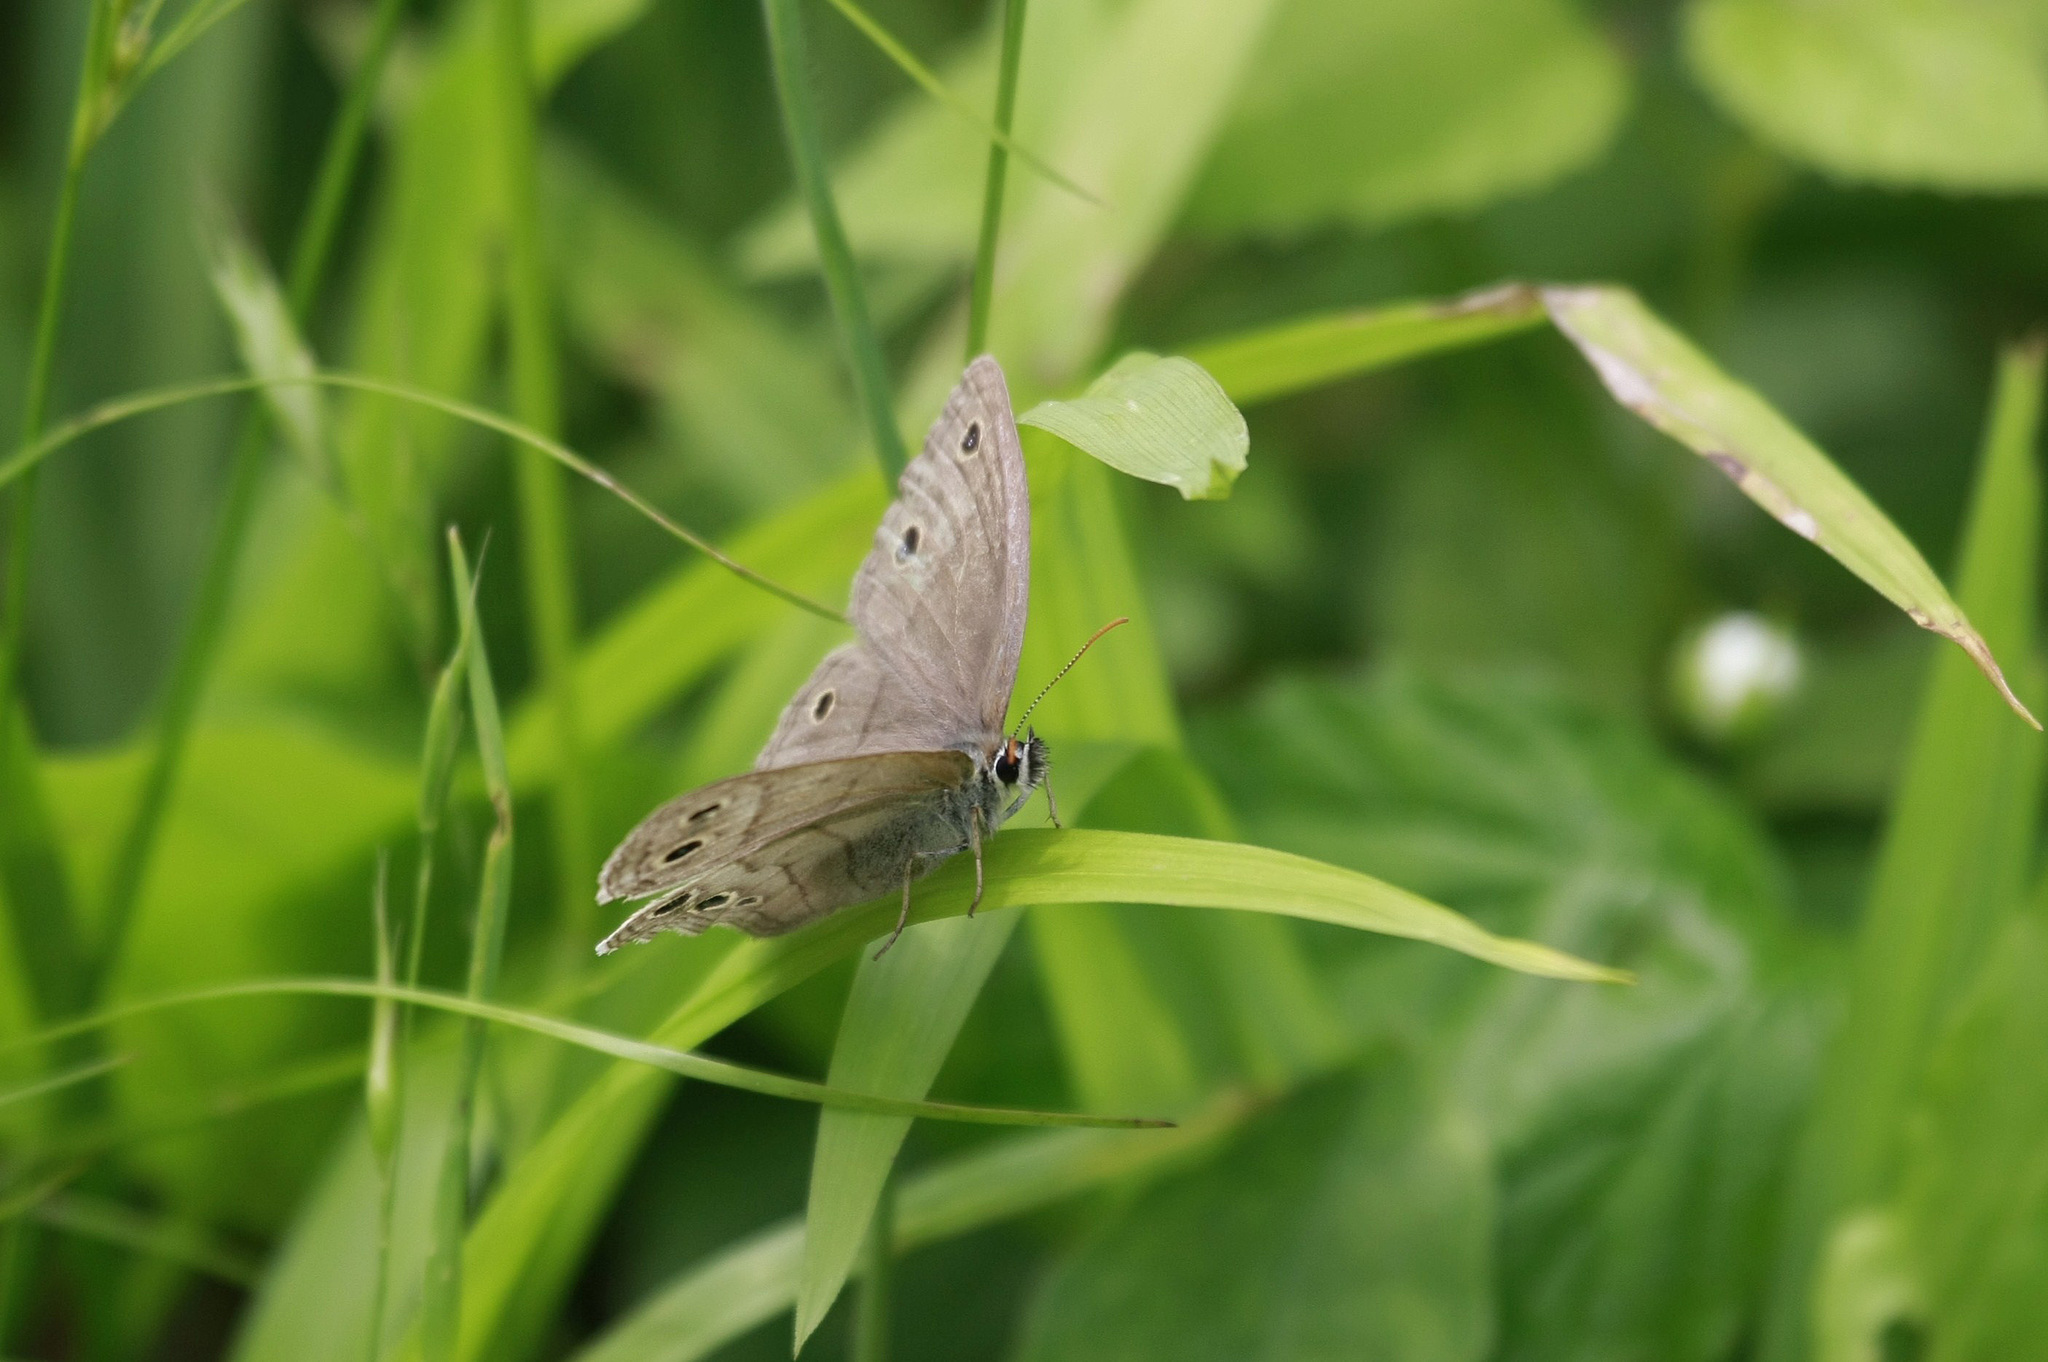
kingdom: Animalia
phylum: Arthropoda
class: Insecta
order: Lepidoptera
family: Nymphalidae
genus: Euptychia
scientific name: Euptychia cymela
